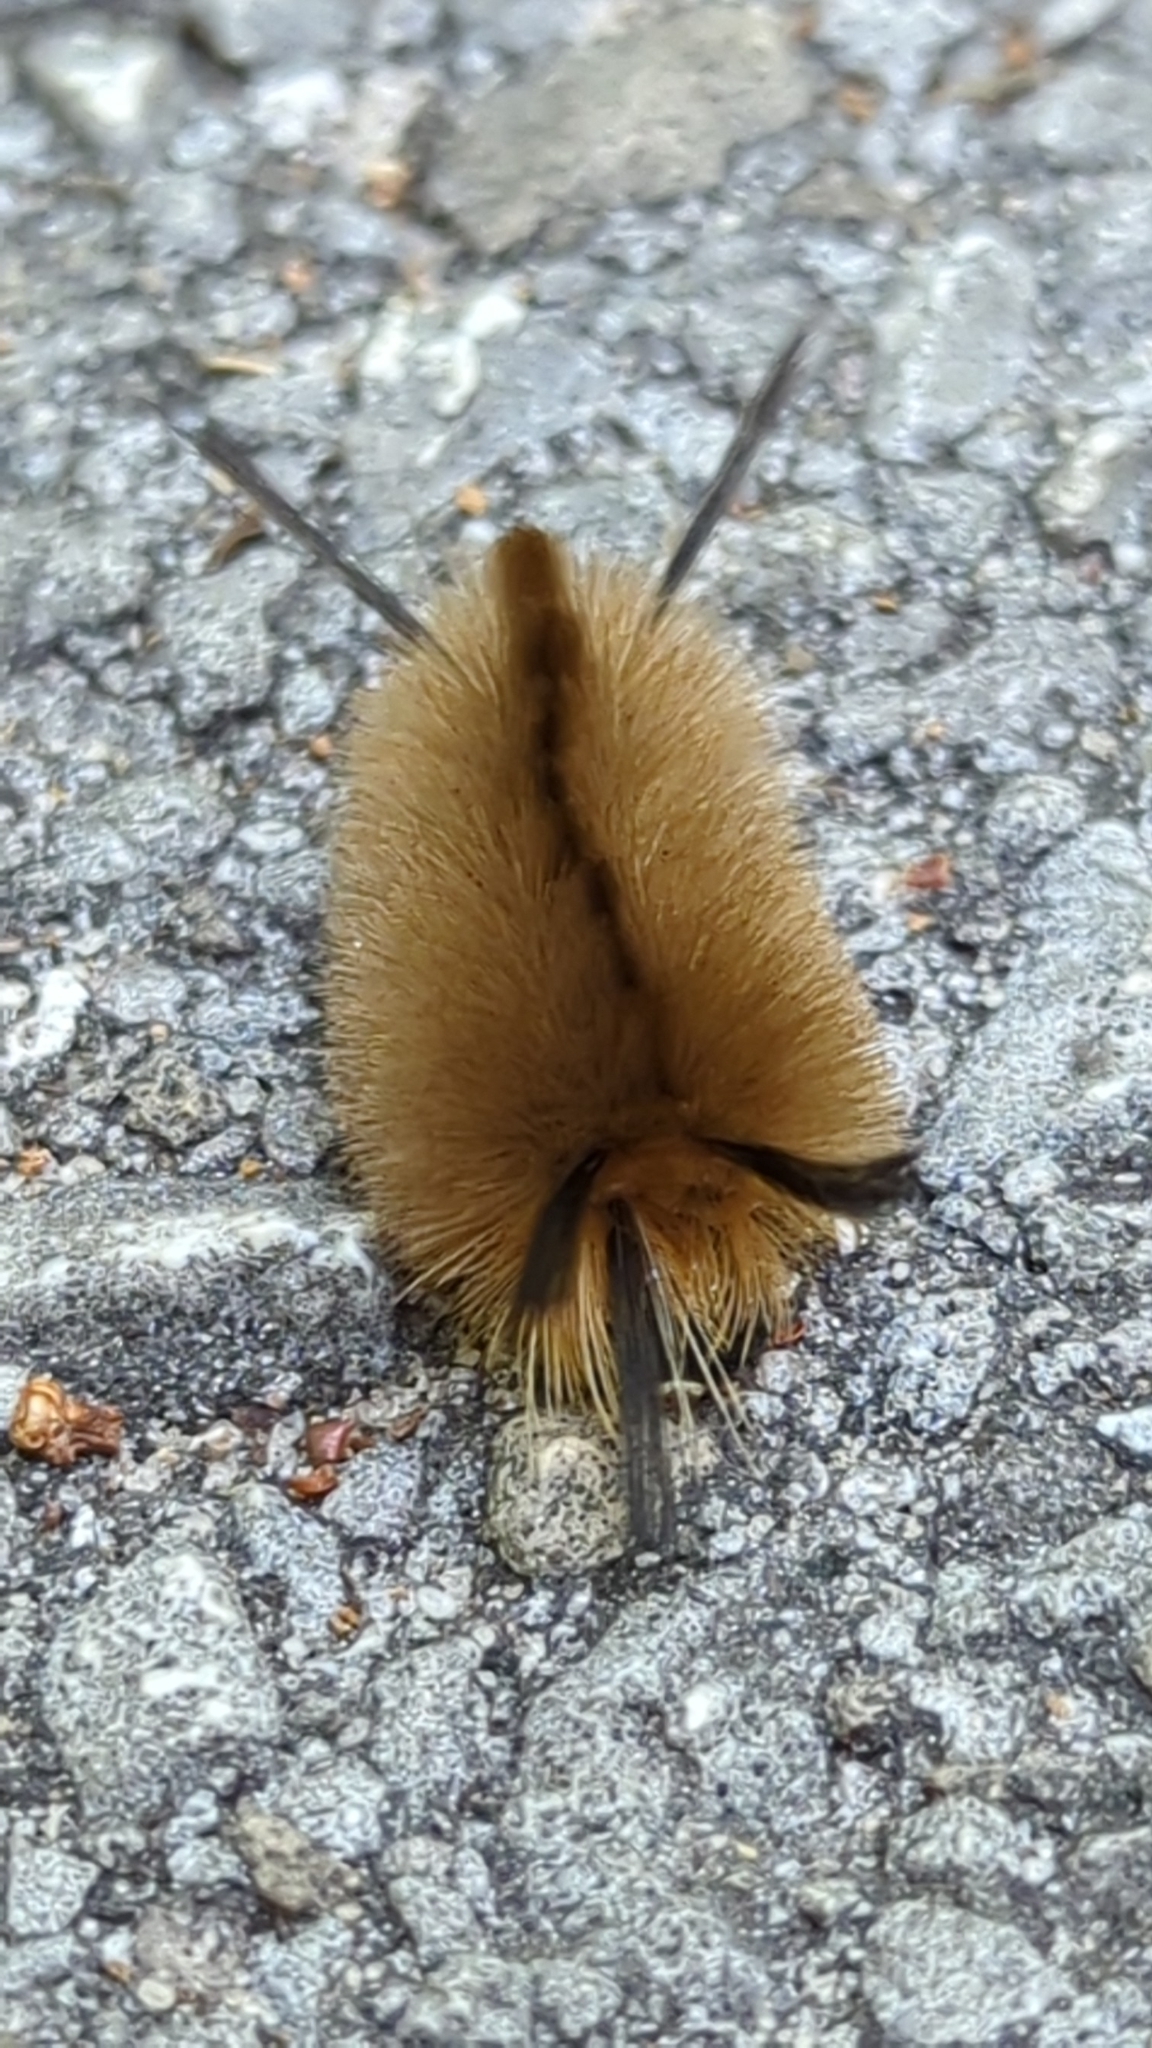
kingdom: Animalia
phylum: Arthropoda
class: Insecta
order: Lepidoptera
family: Erebidae
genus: Halysidota
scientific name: Halysidota tessellaris
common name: Banded tussock moth
